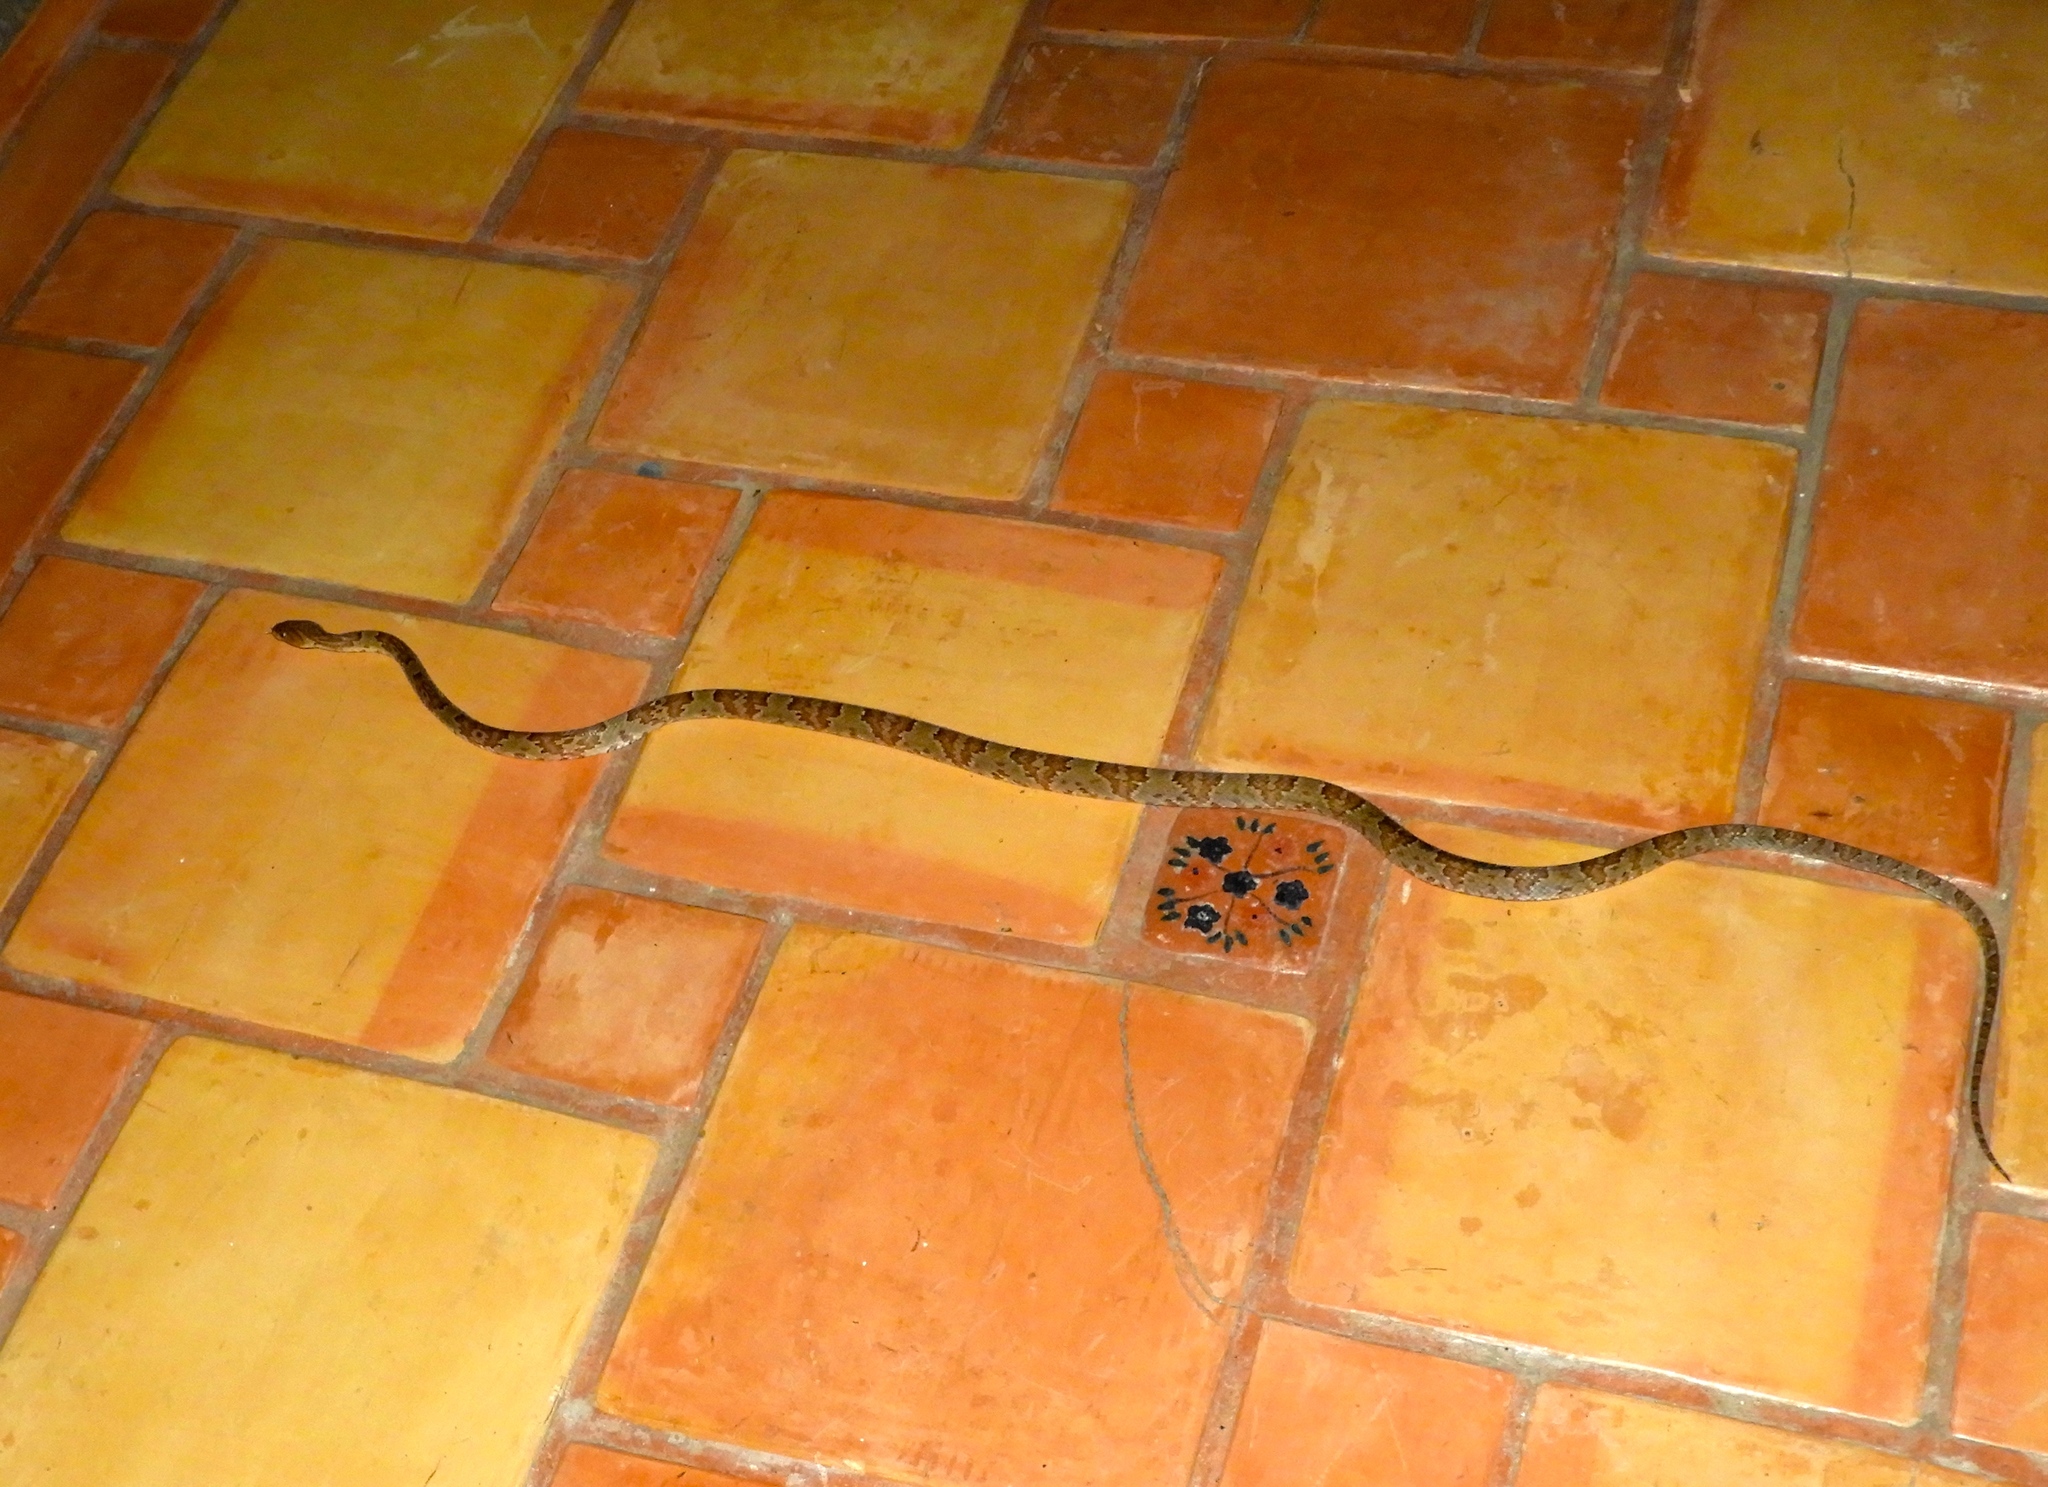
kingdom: Animalia
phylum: Chordata
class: Squamata
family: Colubridae
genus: Trimorphodon
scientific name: Trimorphodon paucimaculatus
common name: Sinaloan lyresnake
